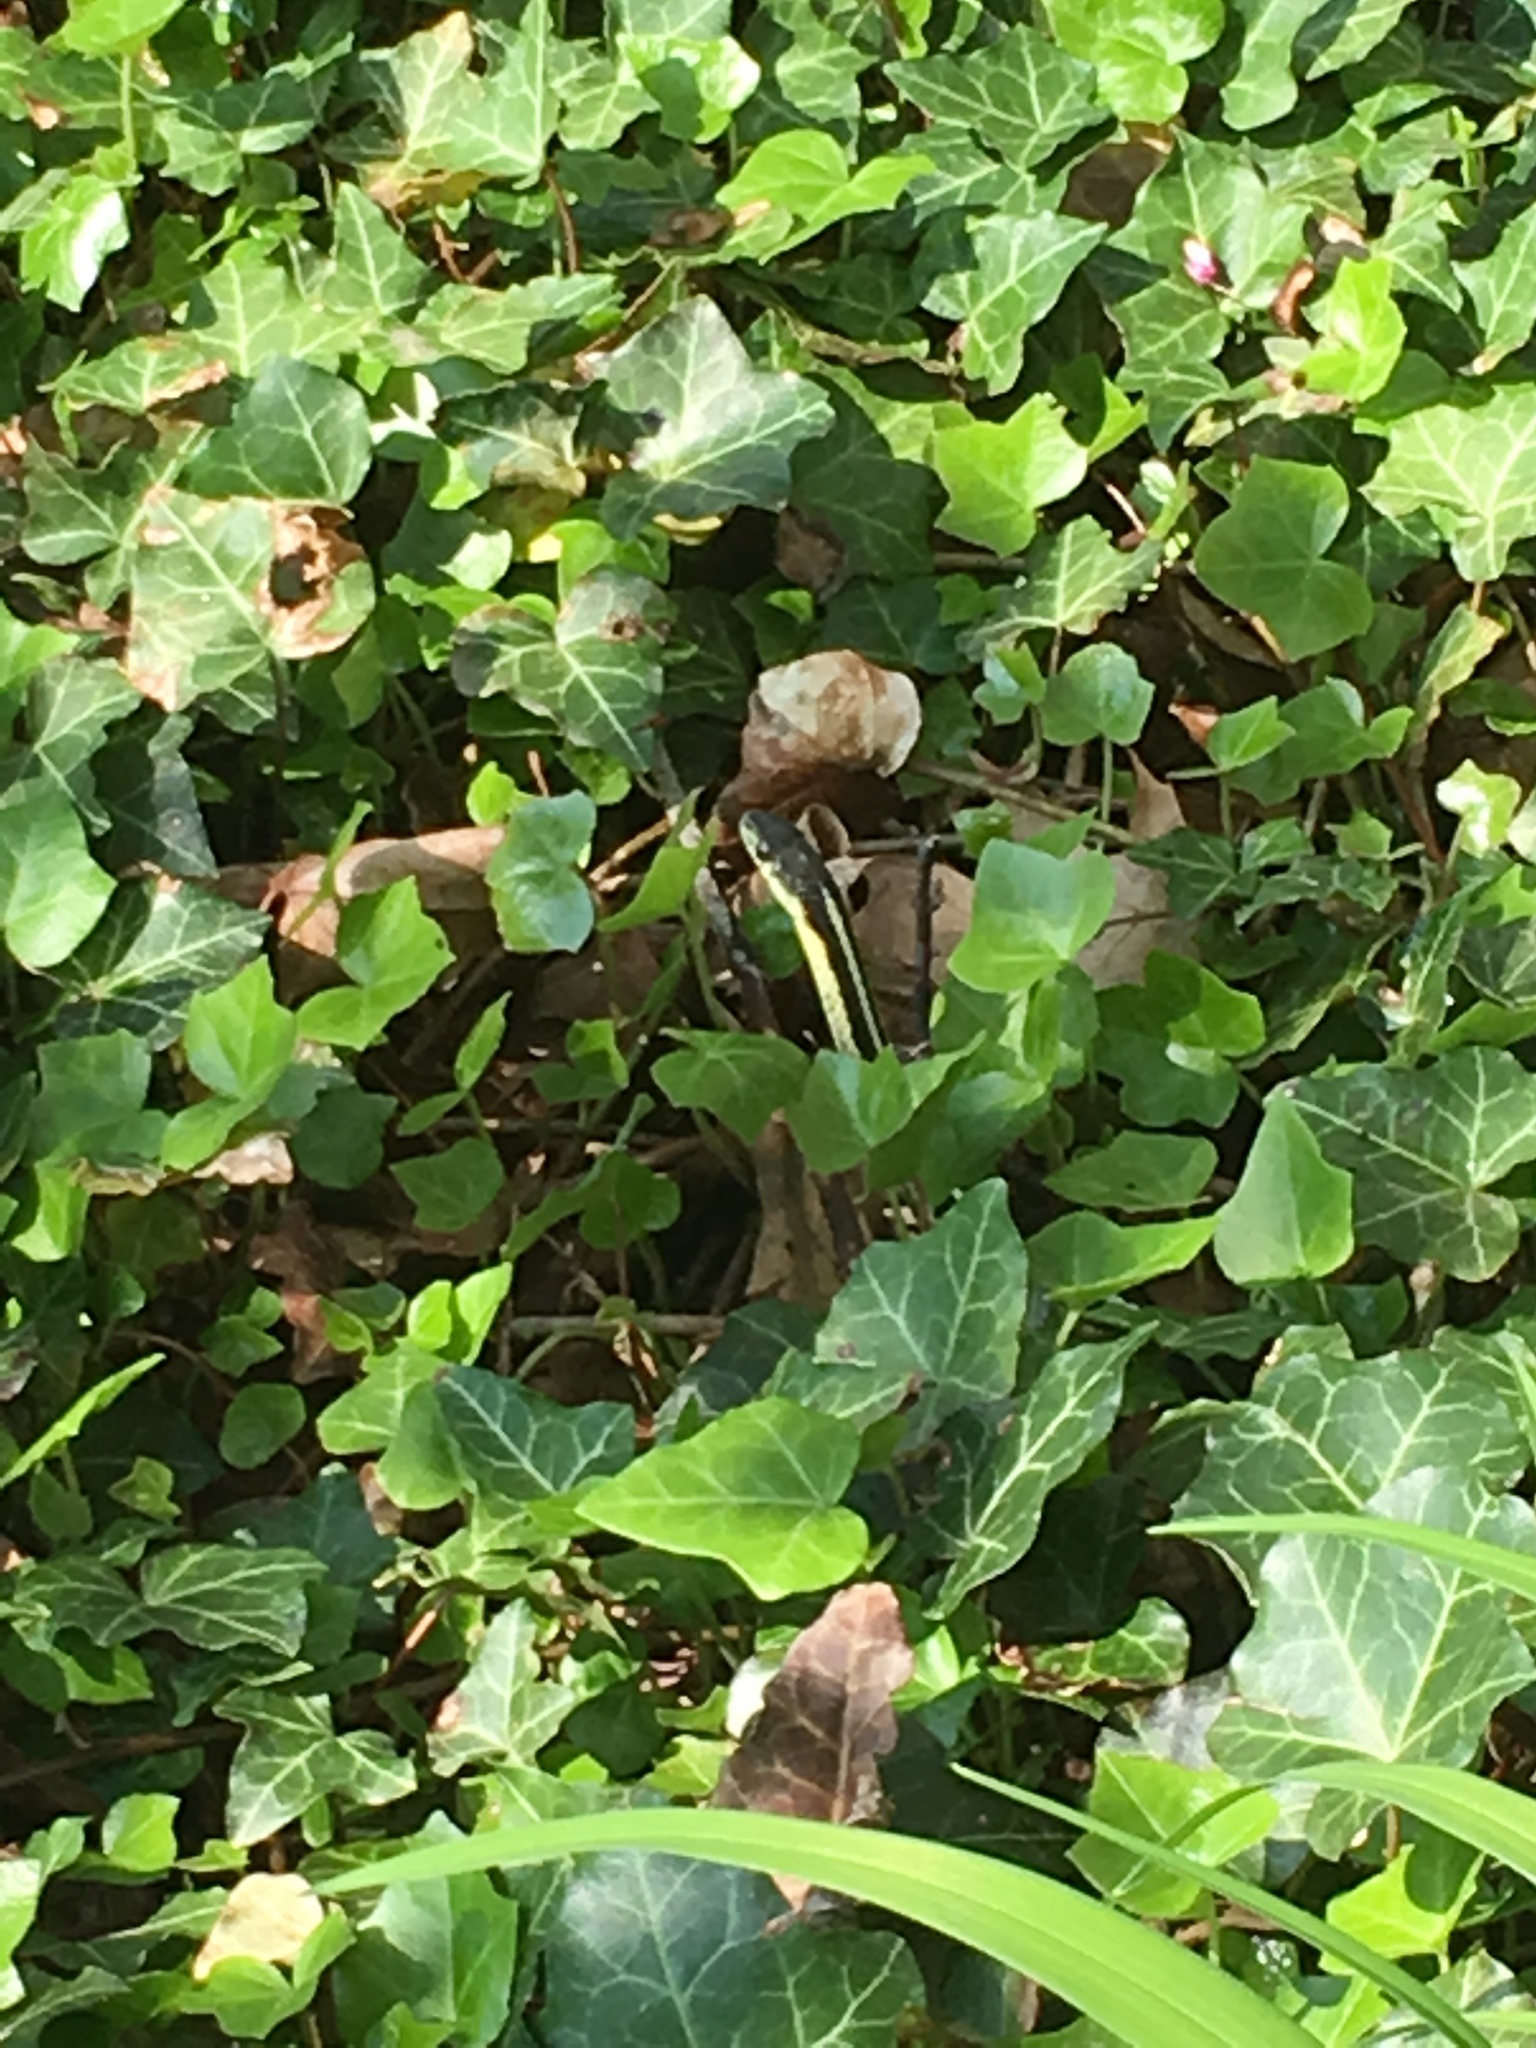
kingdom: Animalia
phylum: Chordata
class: Squamata
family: Colubridae
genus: Thamnophis
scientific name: Thamnophis sirtalis
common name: Common garter snake
